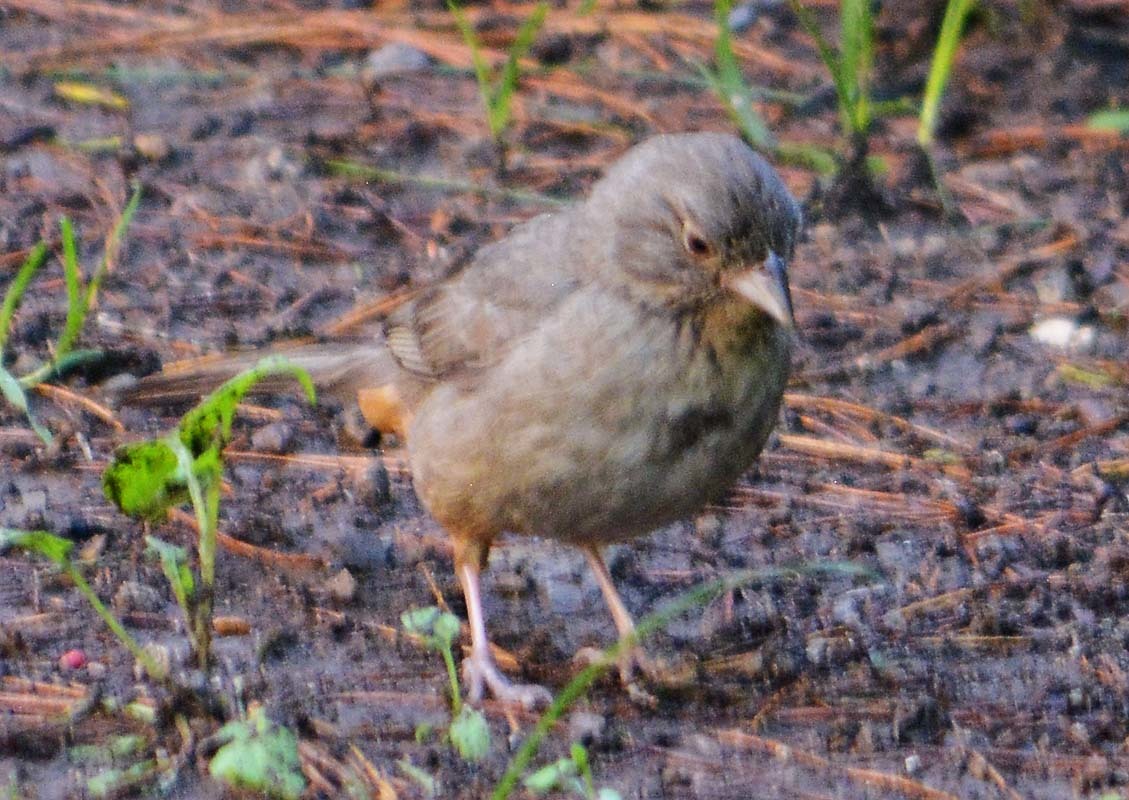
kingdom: Animalia
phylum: Chordata
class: Aves
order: Passeriformes
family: Passerellidae
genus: Melozone
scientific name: Melozone fusca
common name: Canyon towhee
